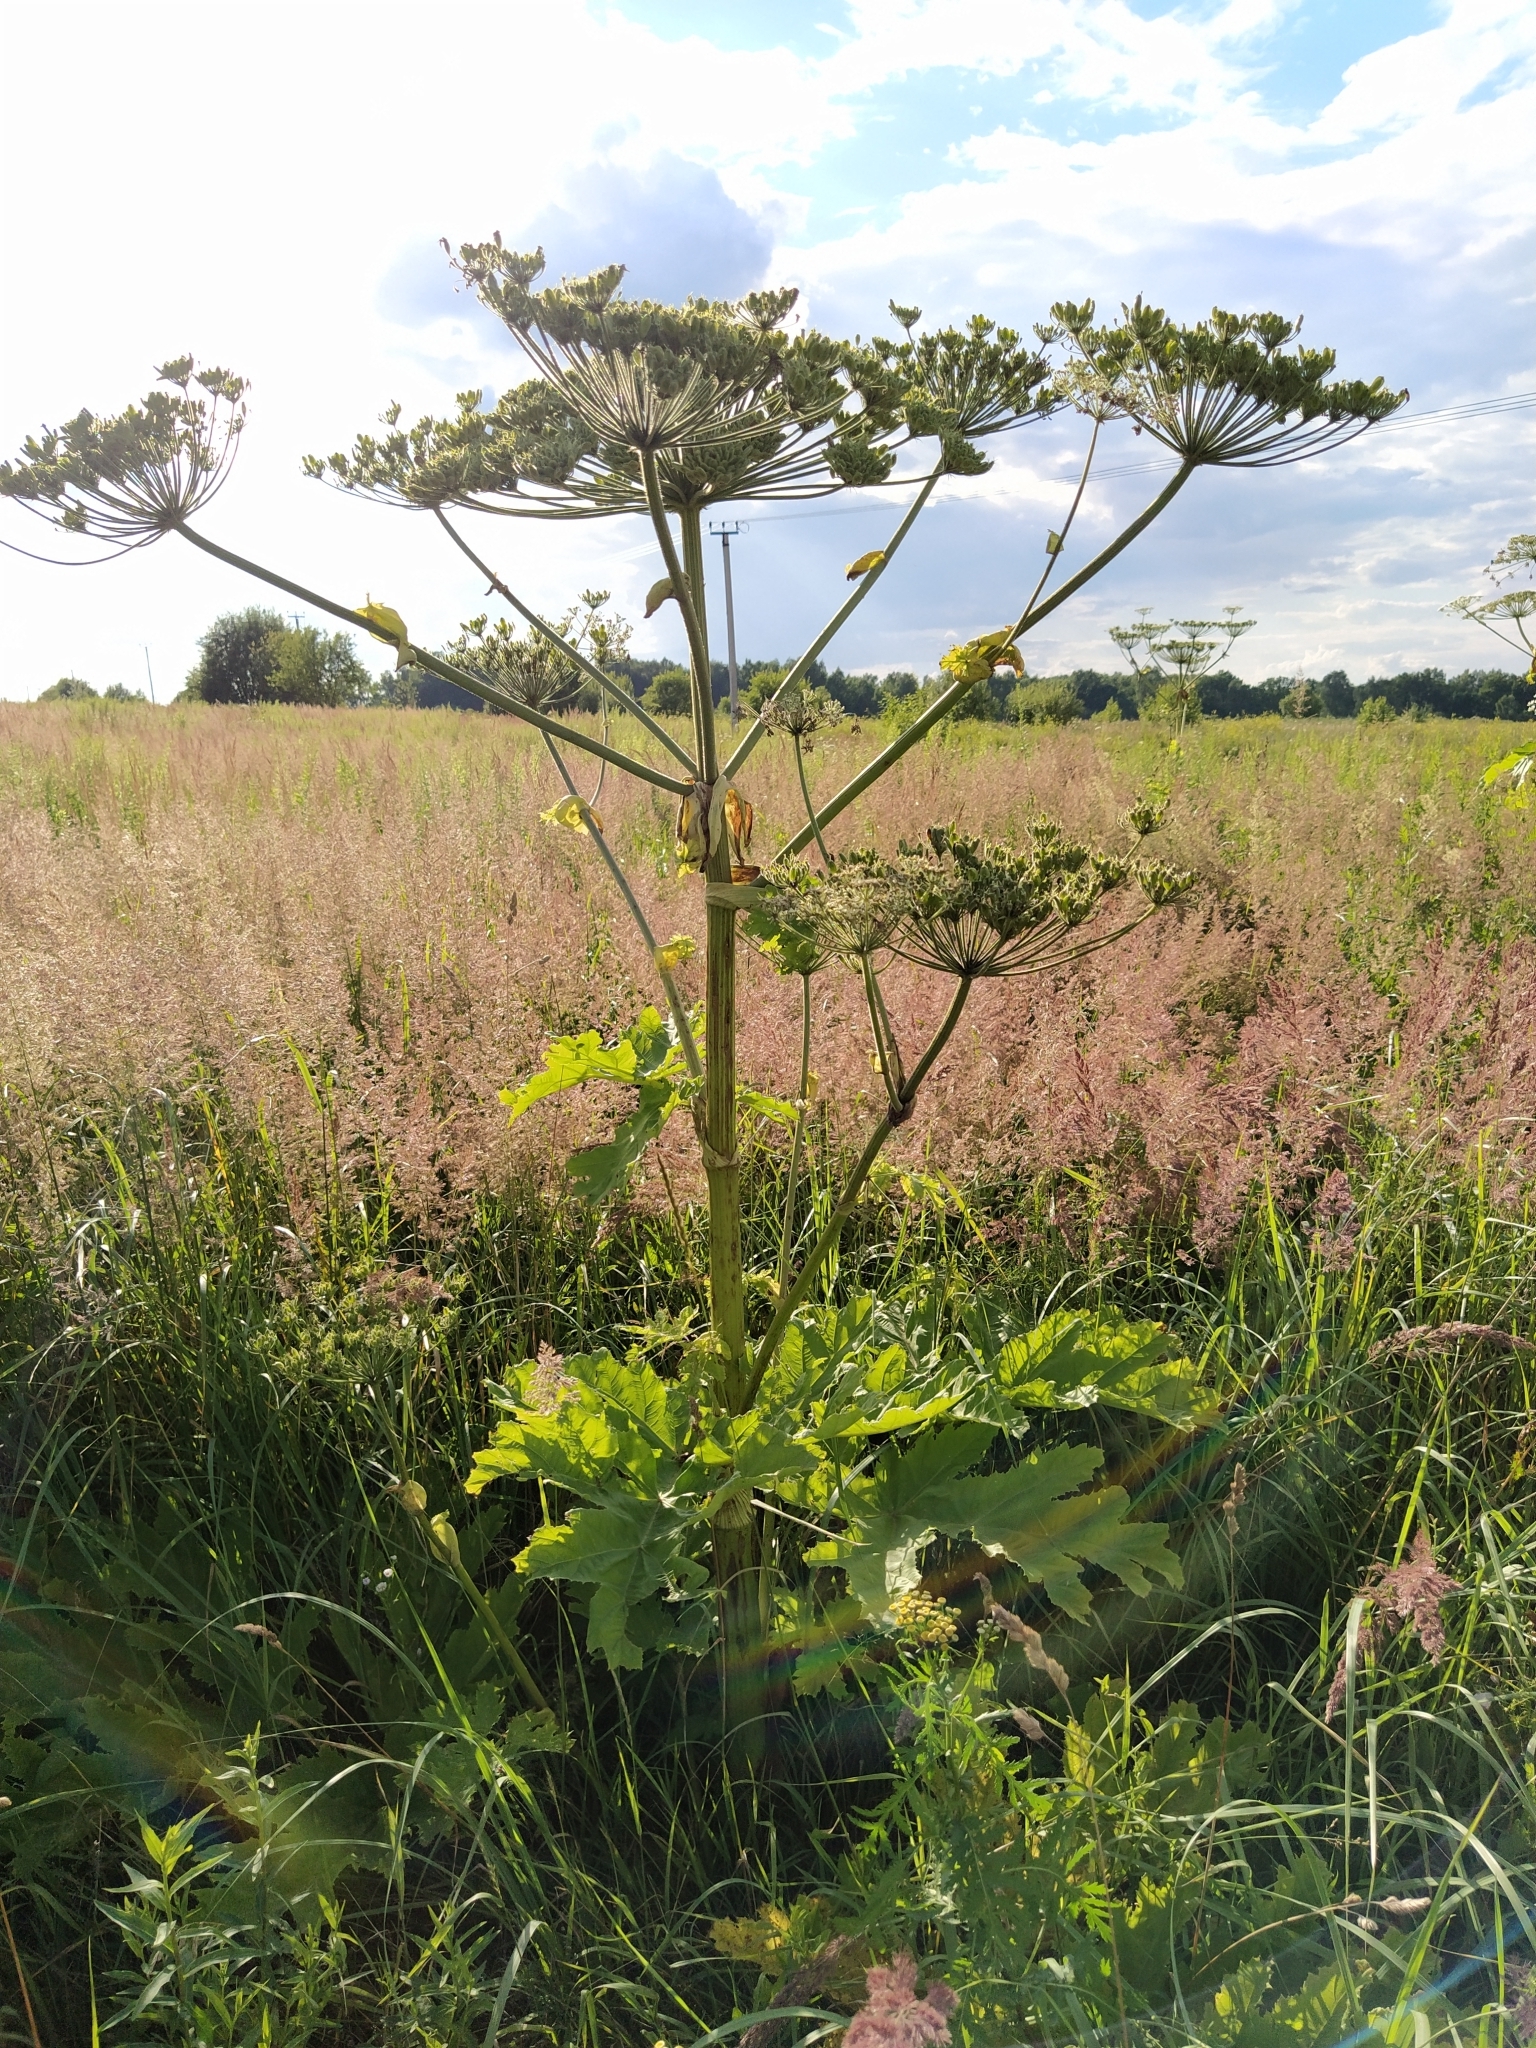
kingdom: Plantae
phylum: Tracheophyta
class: Magnoliopsida
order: Apiales
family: Apiaceae
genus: Heracleum
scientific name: Heracleum sosnowskyi
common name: Sosnowsky's hogweed
